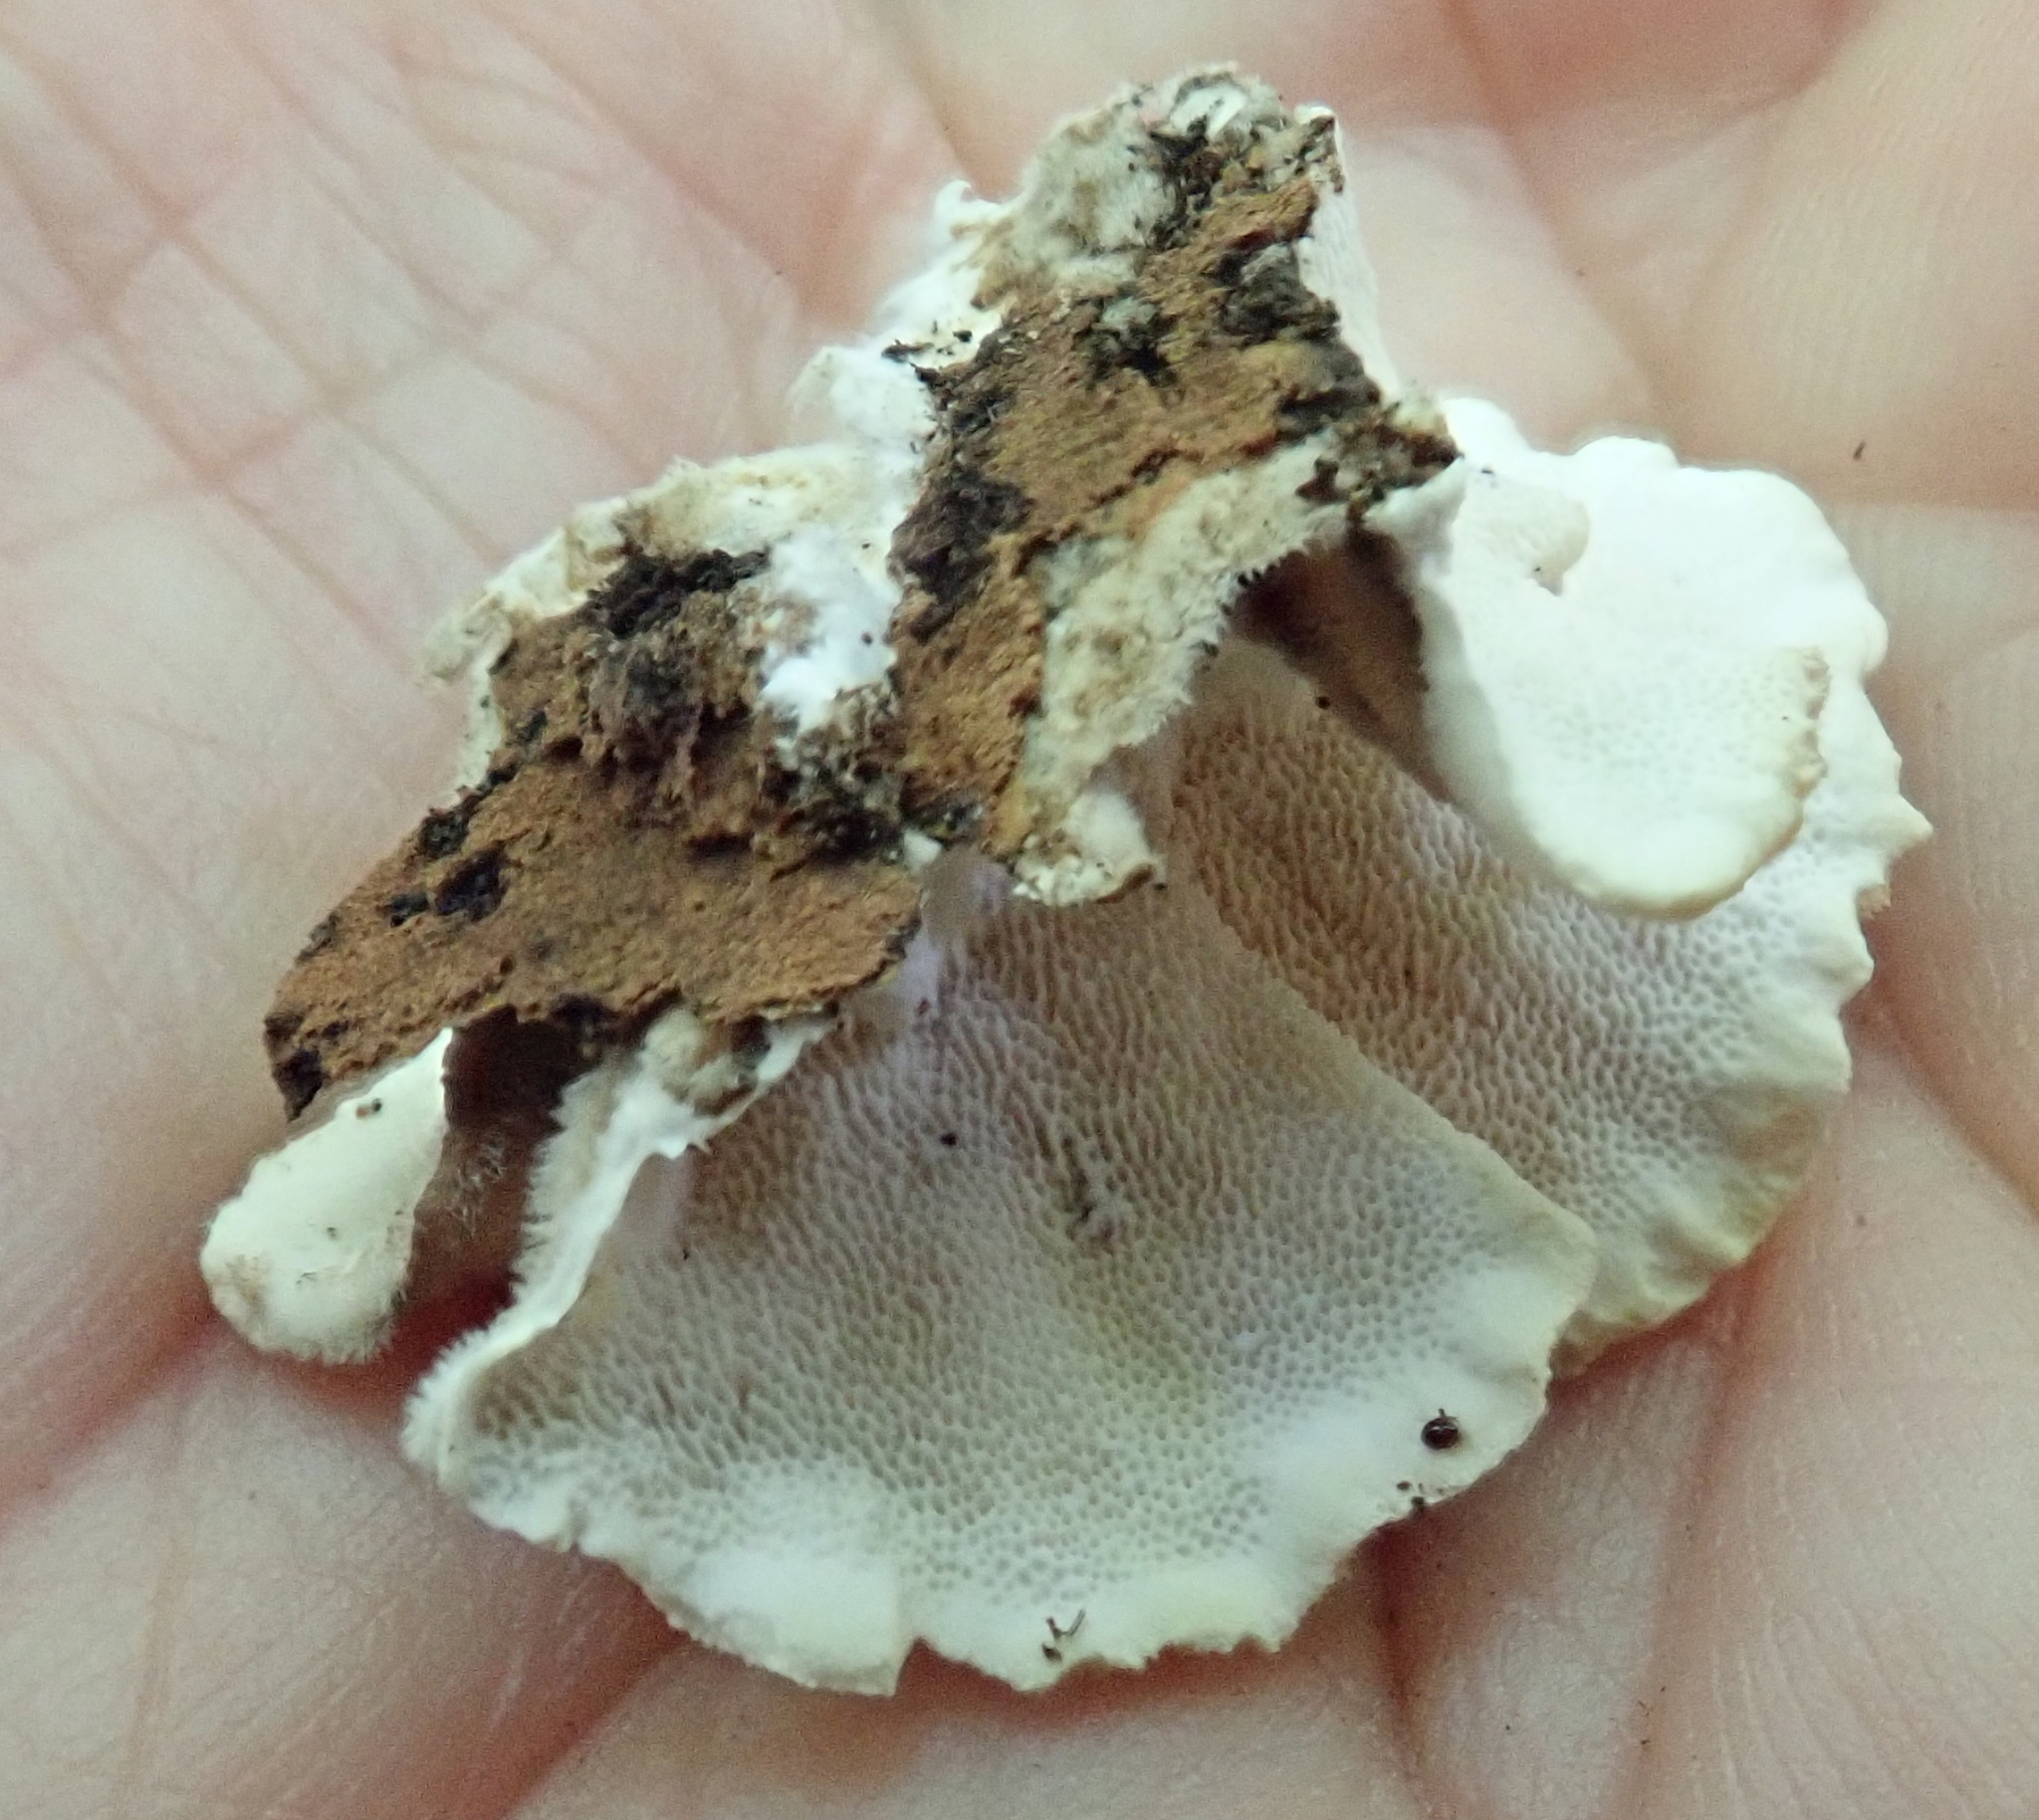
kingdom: Fungi
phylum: Basidiomycota
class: Agaricomycetes
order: Polyporales
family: Polyporaceae
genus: Trametes
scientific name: Trametes versicolor
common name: Turkeytail
